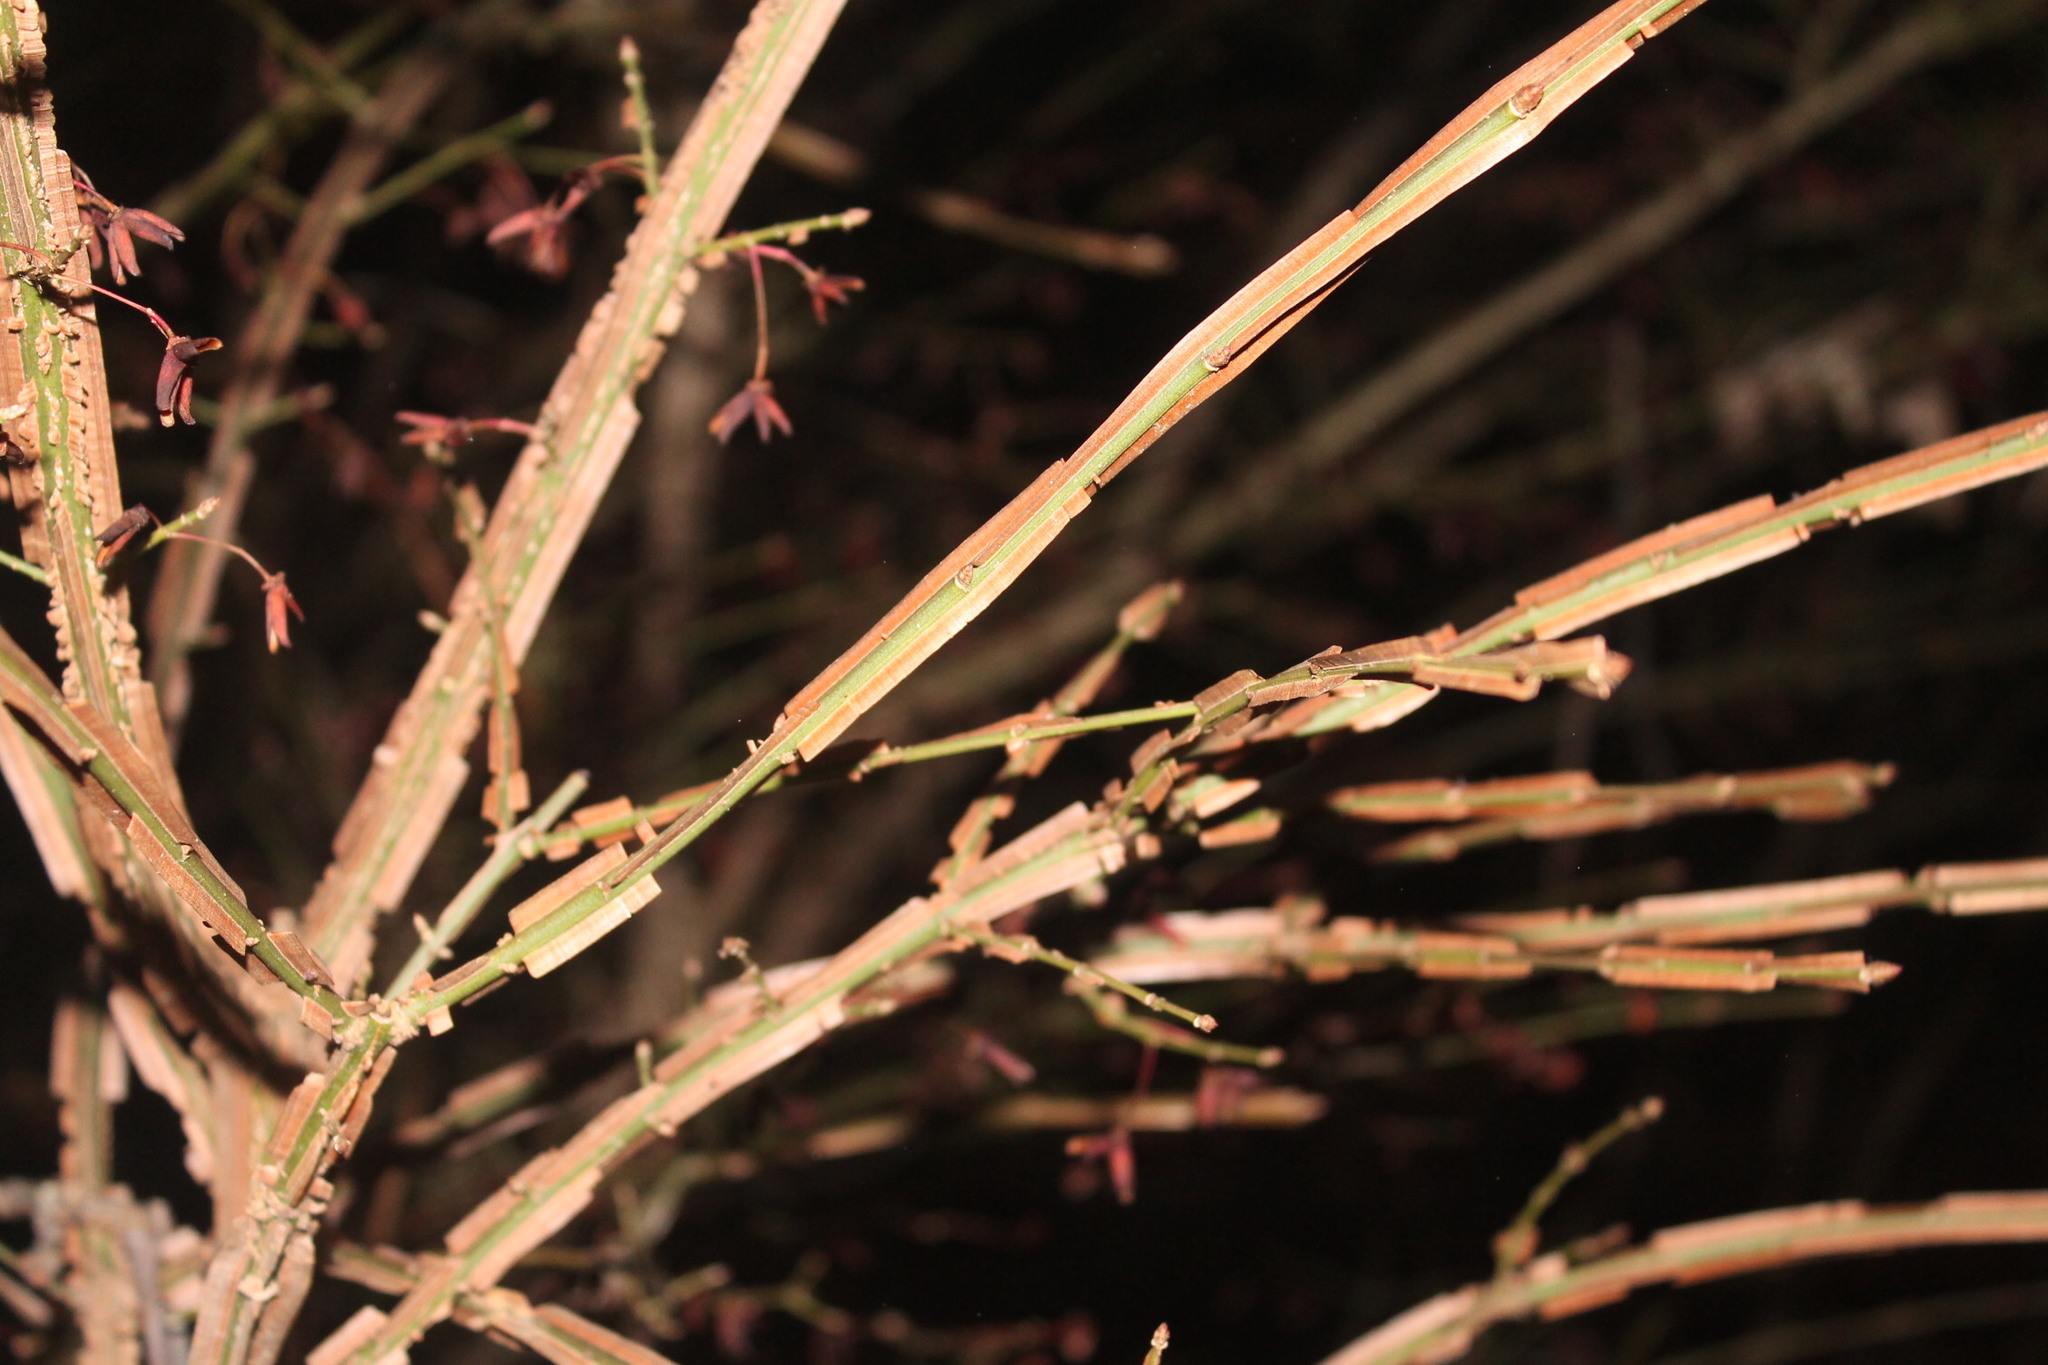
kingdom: Plantae
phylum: Tracheophyta
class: Magnoliopsida
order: Celastrales
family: Celastraceae
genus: Euonymus
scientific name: Euonymus alatus
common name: Winged euonymus
